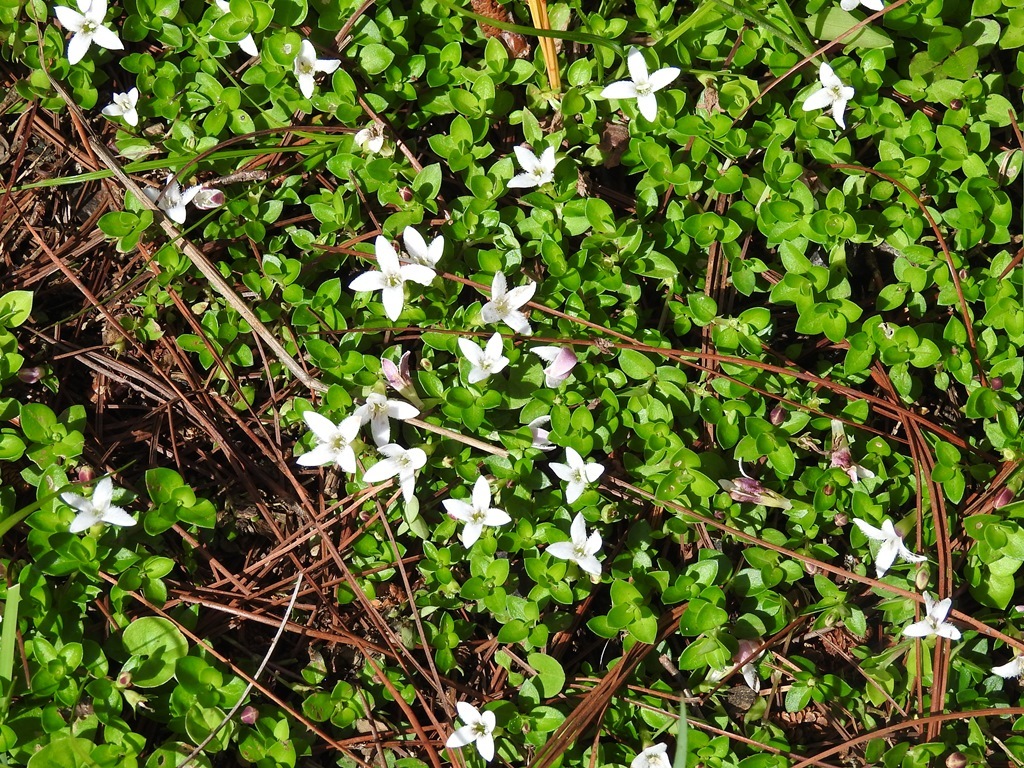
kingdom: Plantae
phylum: Tracheophyta
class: Magnoliopsida
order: Gentianales
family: Rubiaceae
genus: Arcytophyllum
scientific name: Arcytophyllum serpyllaceum
